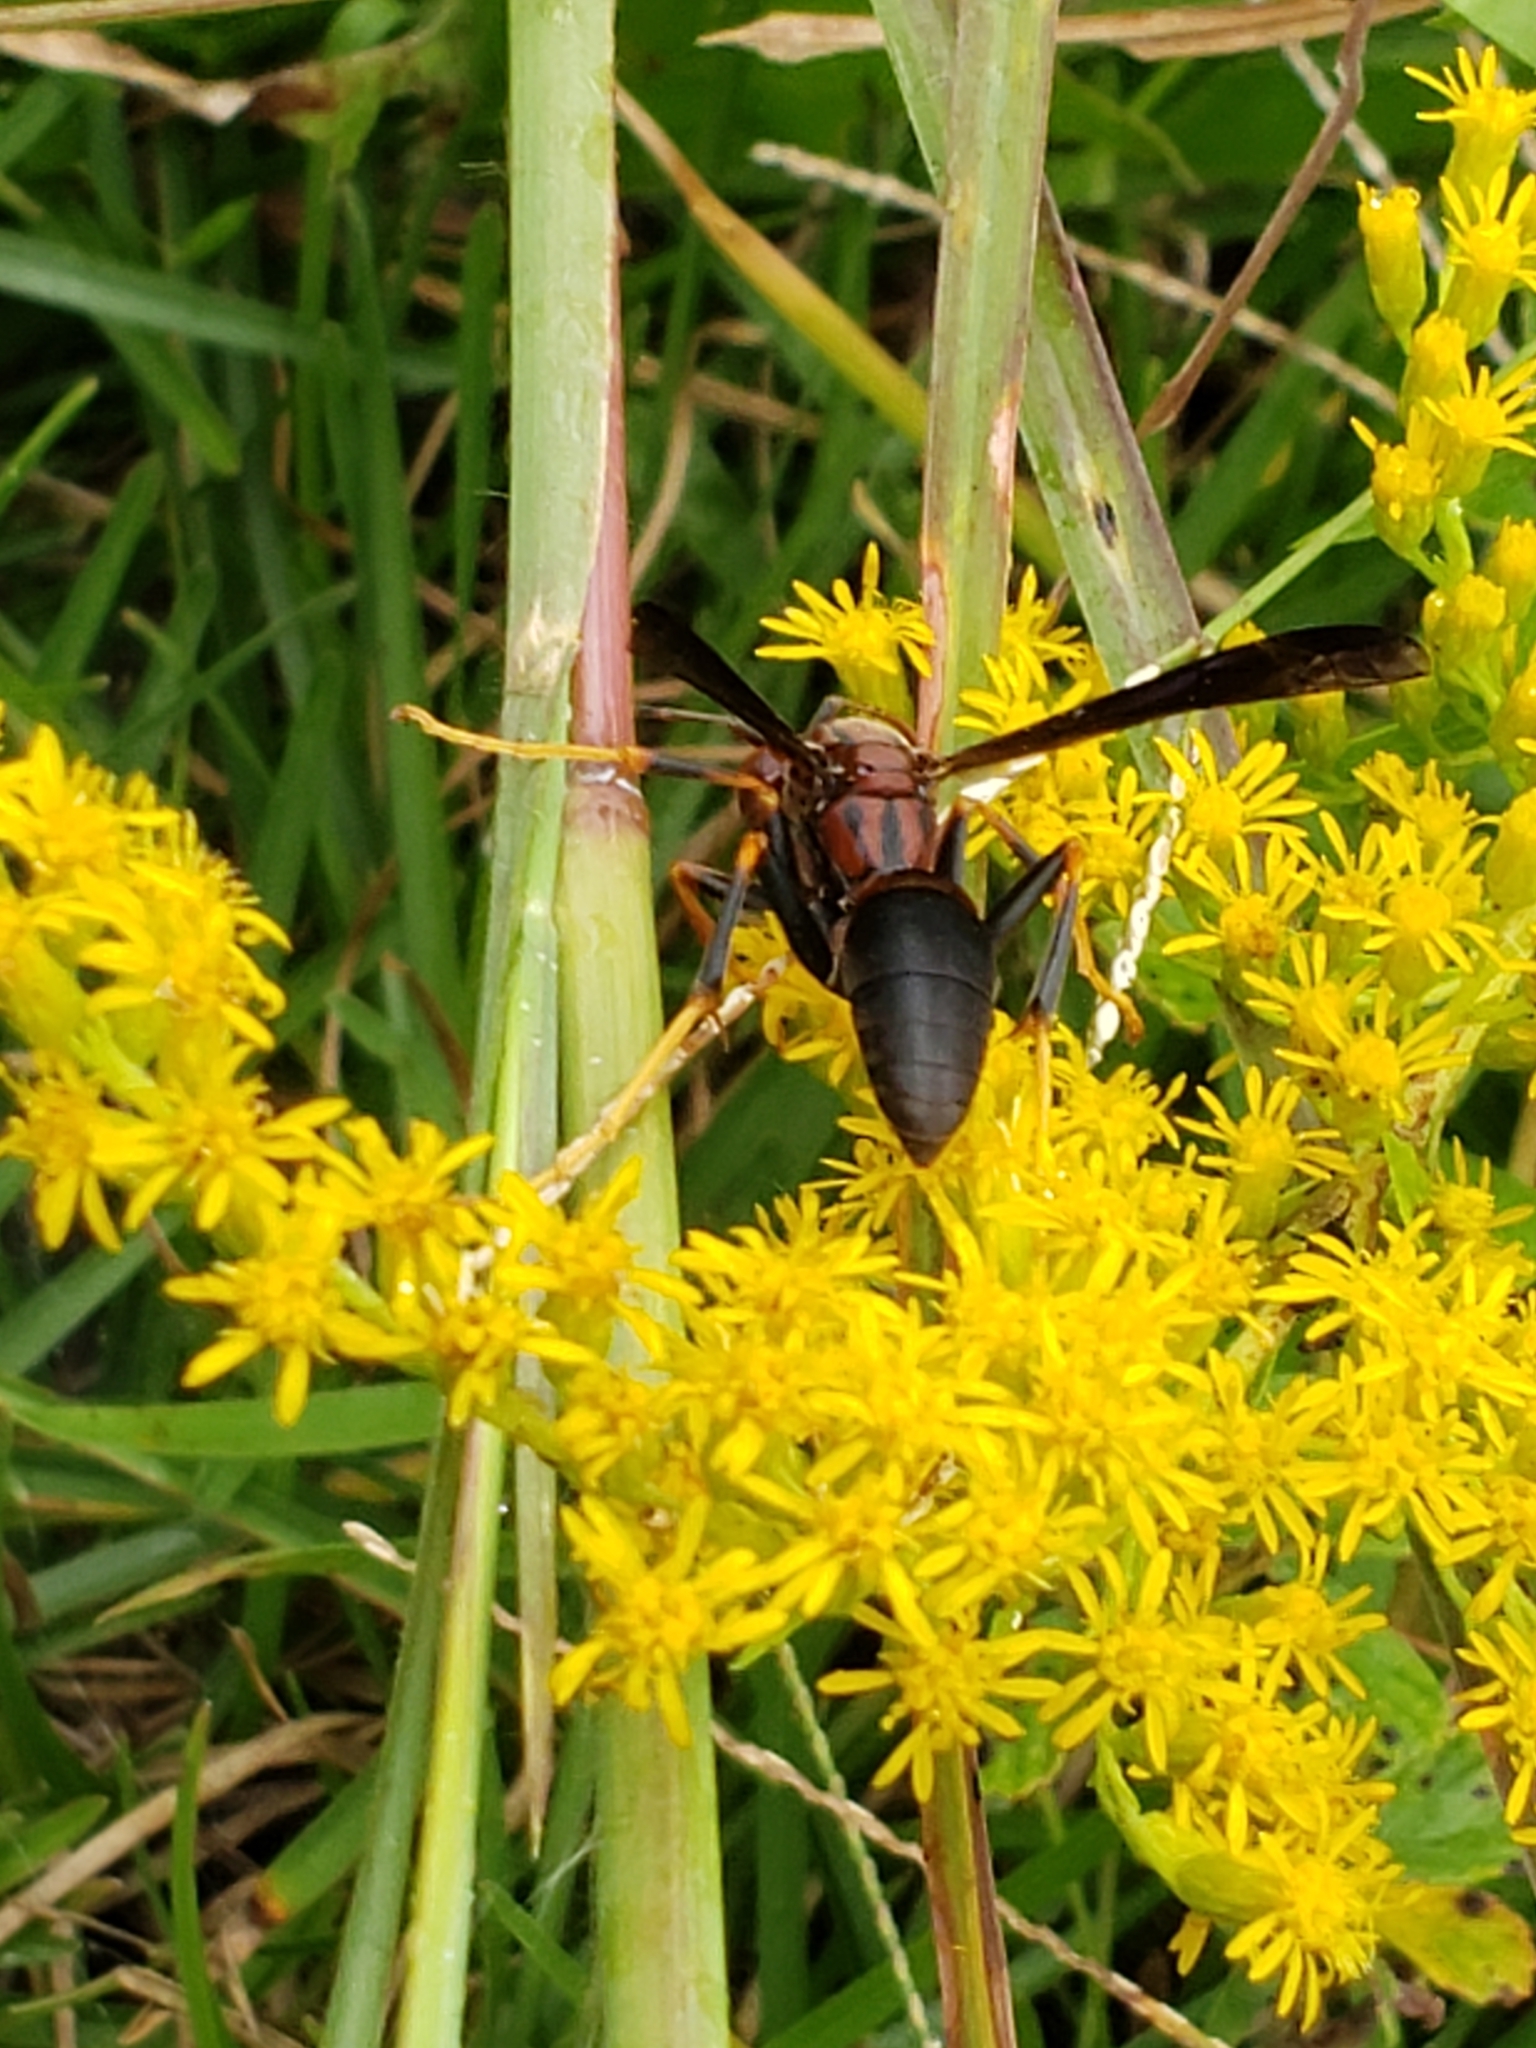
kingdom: Animalia
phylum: Arthropoda
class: Insecta
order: Hymenoptera
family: Eumenidae
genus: Polistes
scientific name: Polistes metricus
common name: Metric paper wasp
